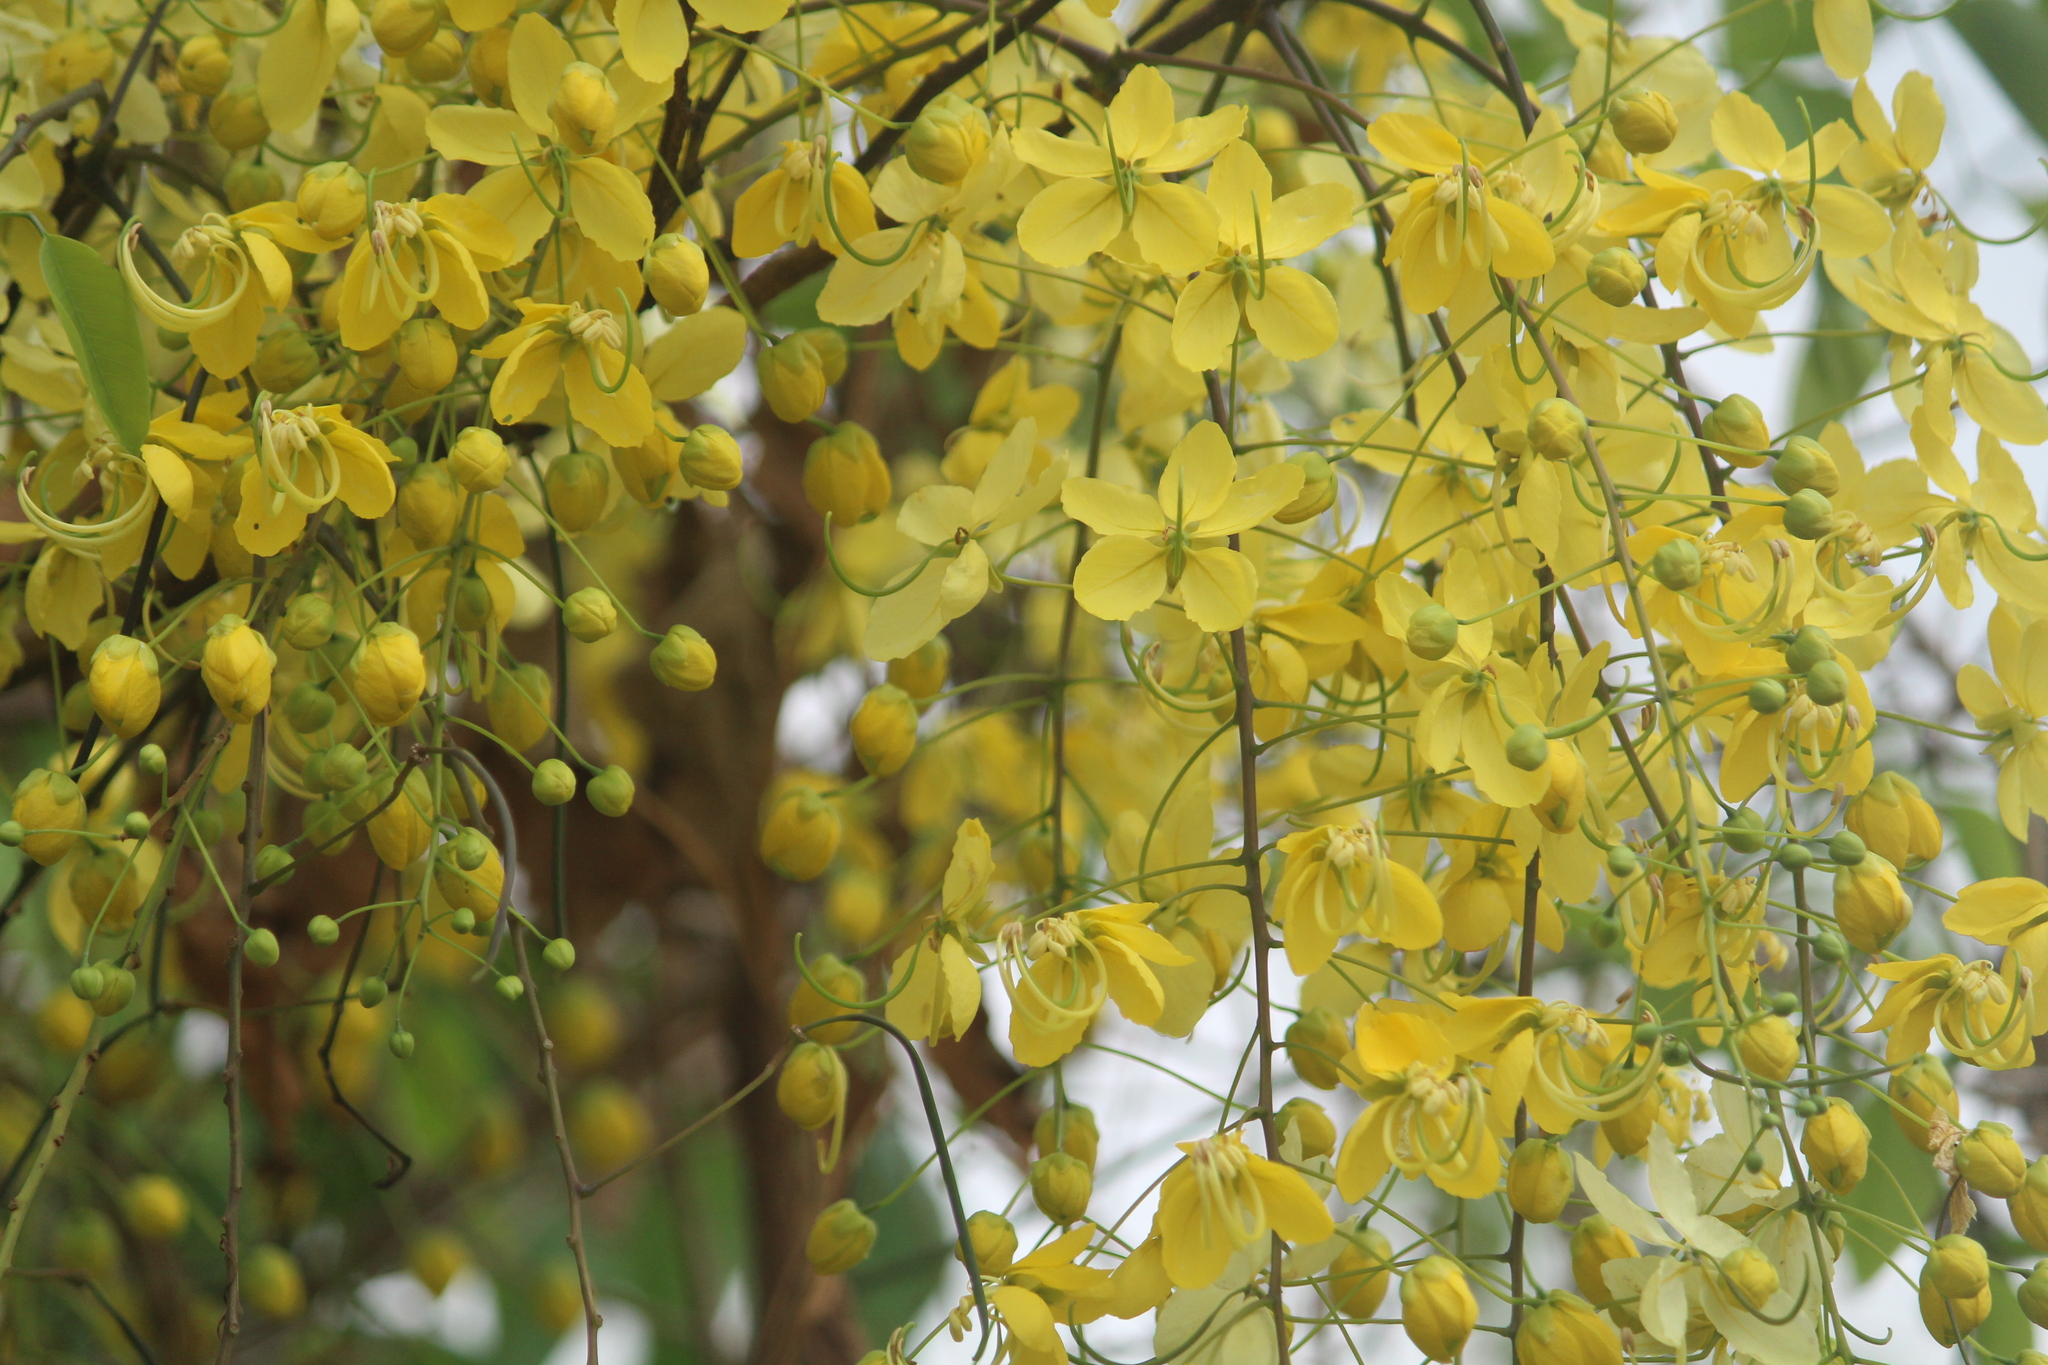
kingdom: Plantae
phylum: Tracheophyta
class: Magnoliopsida
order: Fabales
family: Fabaceae
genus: Cassia
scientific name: Cassia fistula
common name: Golden shower
